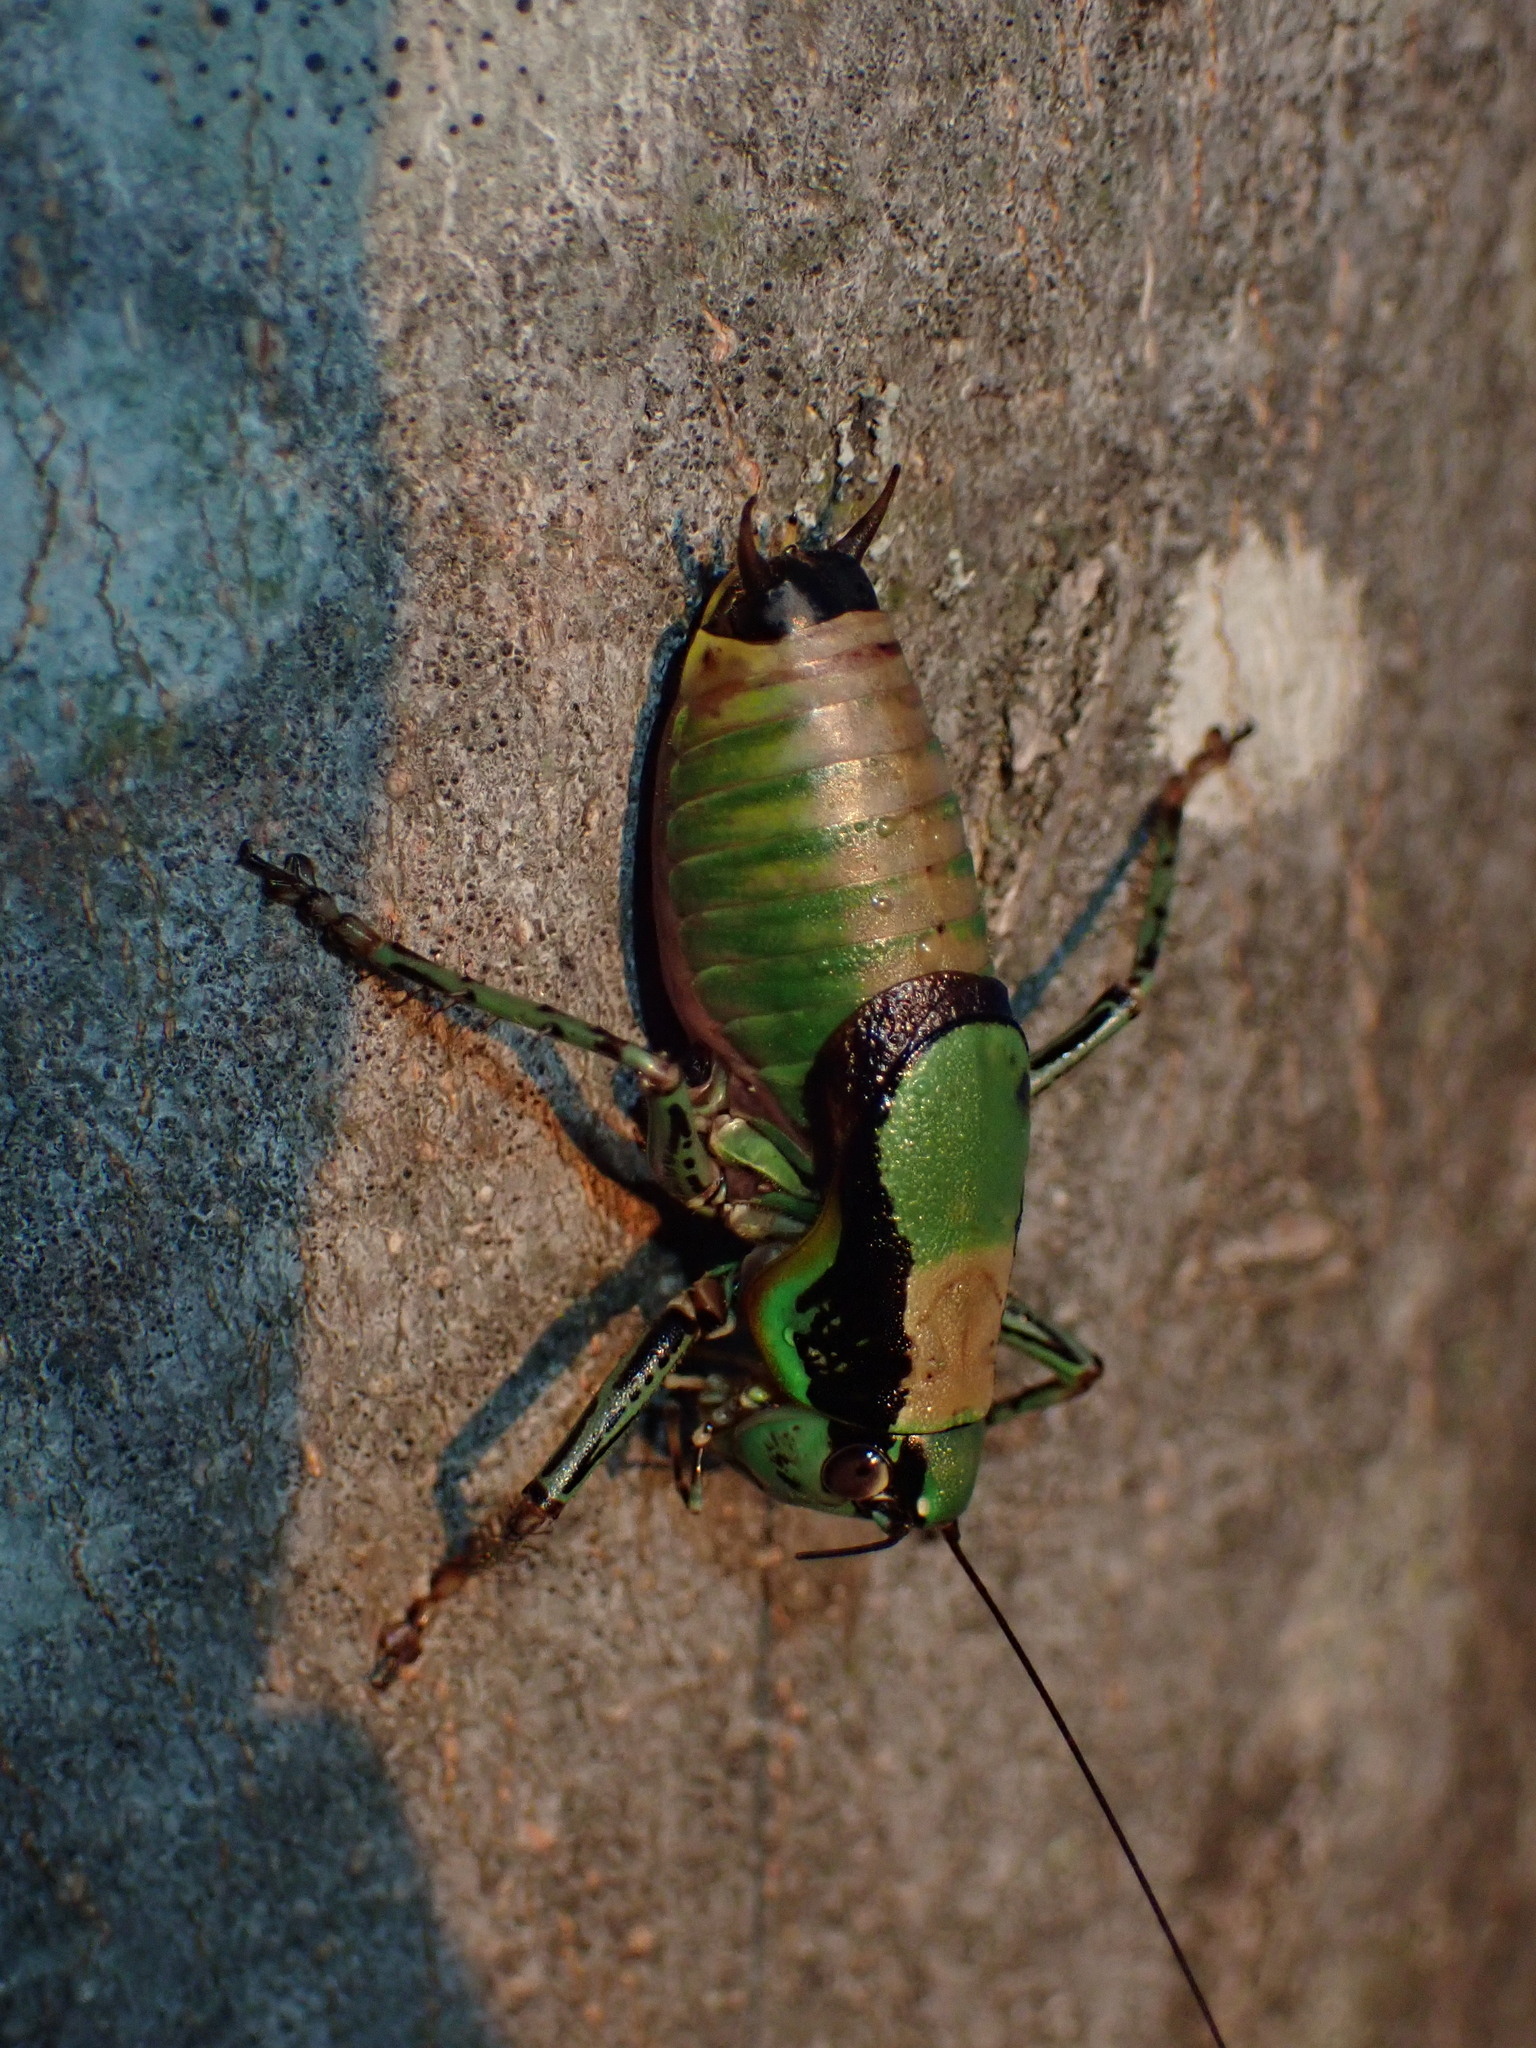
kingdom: Animalia
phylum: Arthropoda
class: Insecta
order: Orthoptera
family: Tettigoniidae
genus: Eupholidoptera
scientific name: Eupholidoptera schmidti
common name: Schmidt's marbled bush-cricket
